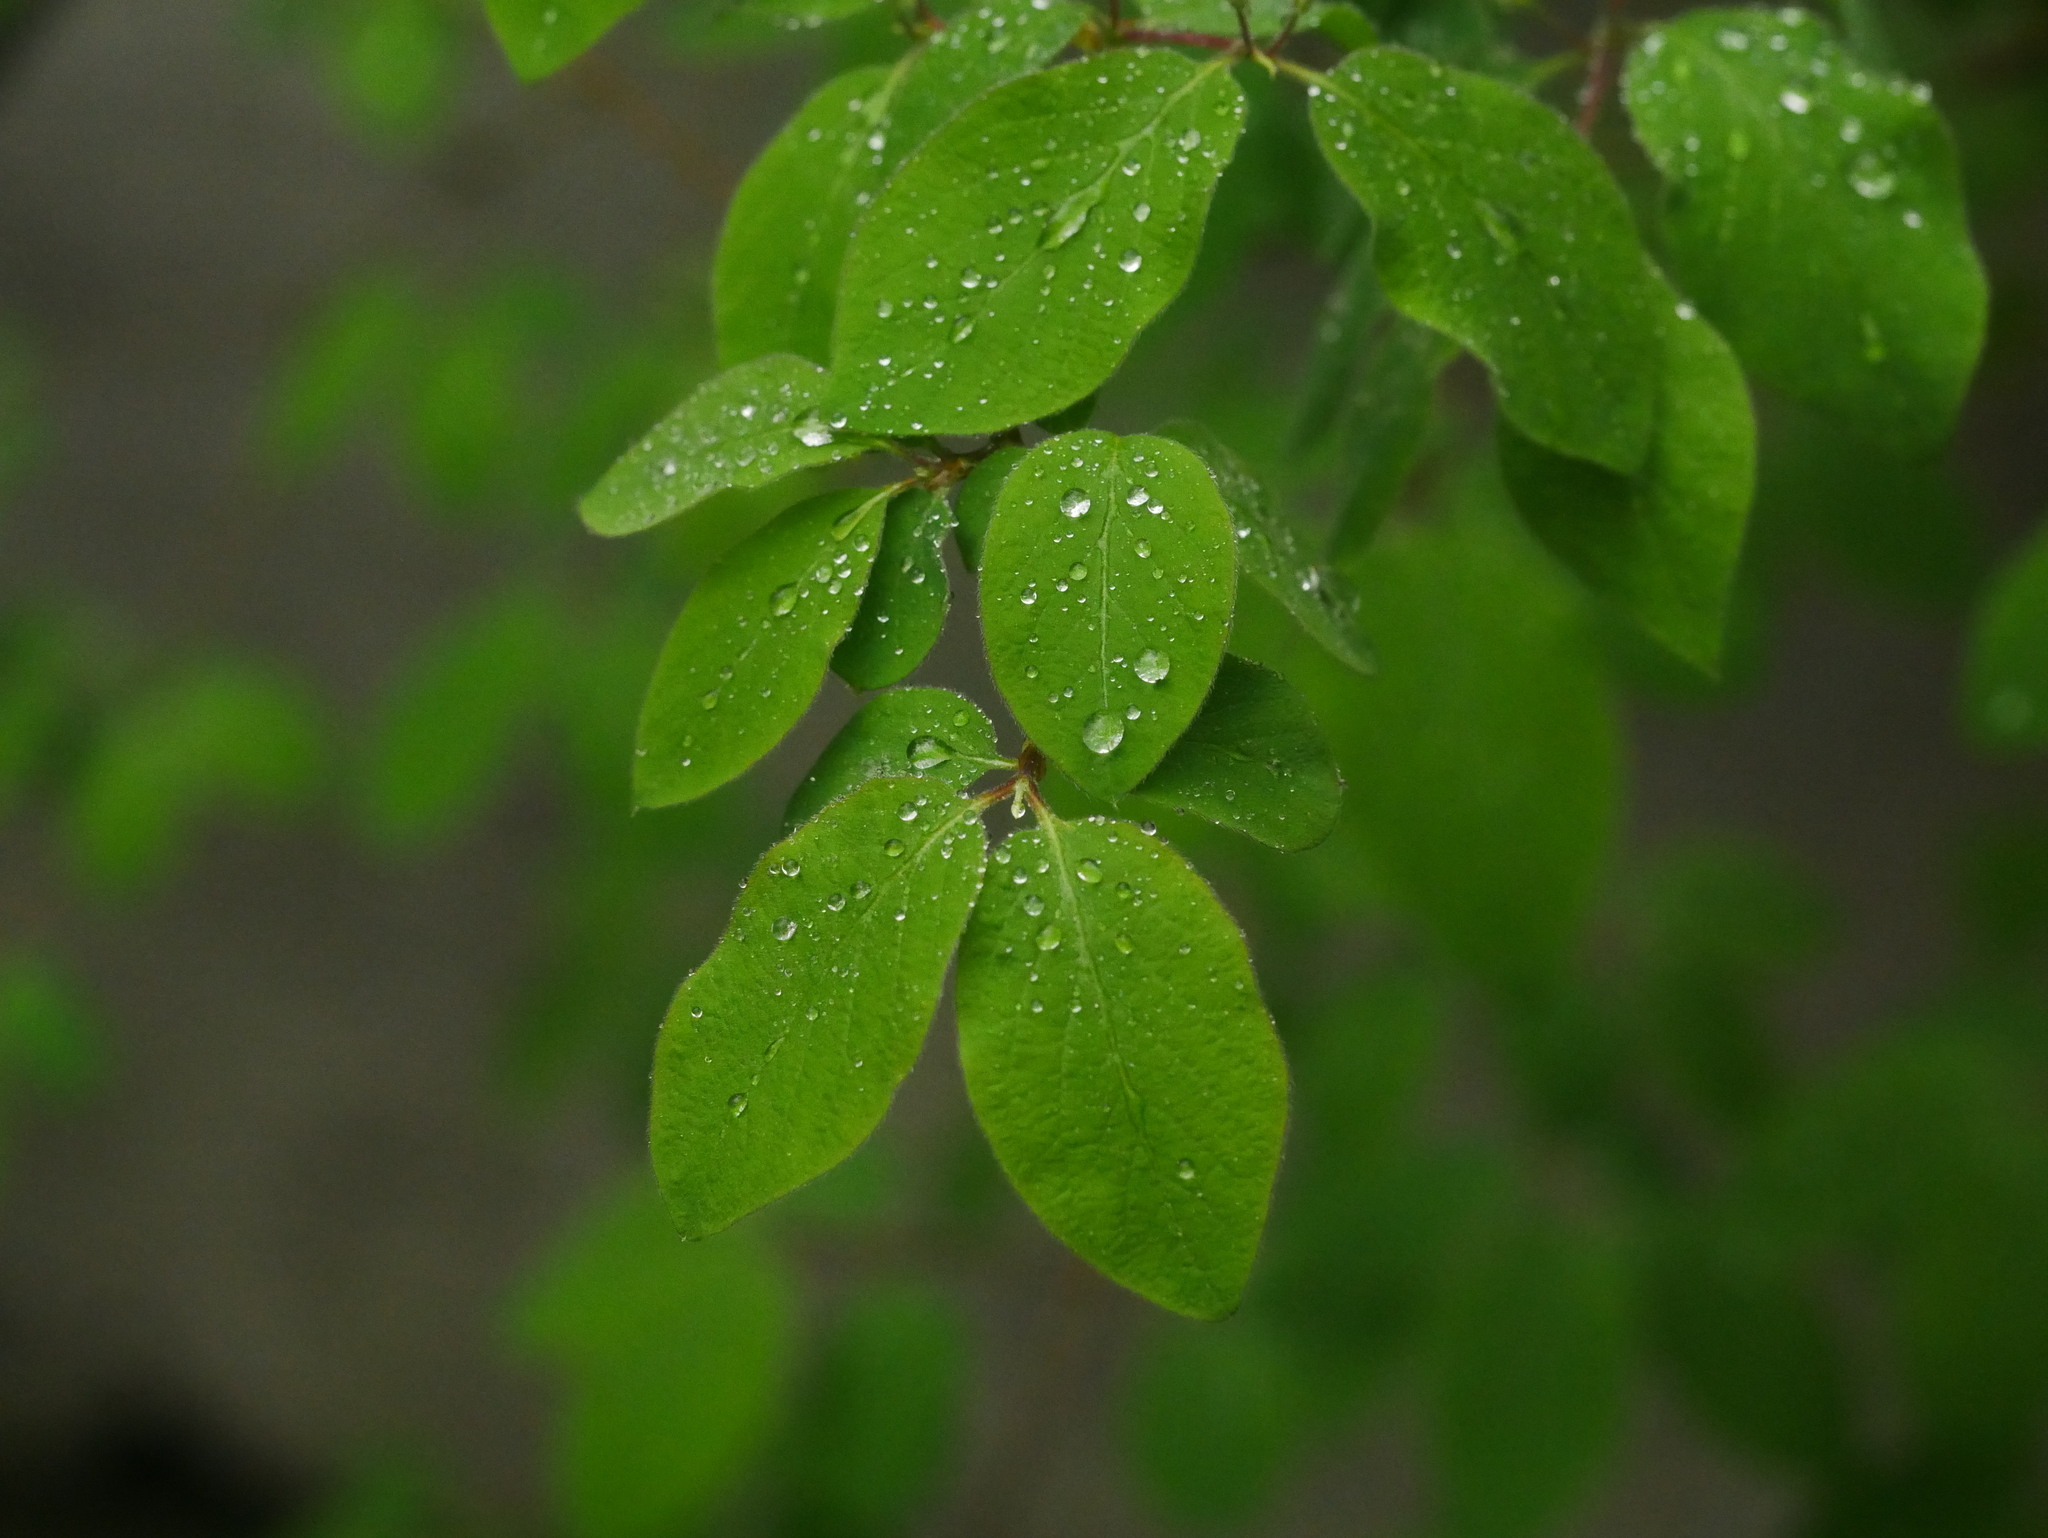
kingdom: Plantae
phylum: Tracheophyta
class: Magnoliopsida
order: Dipsacales
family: Caprifoliaceae
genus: Lonicera
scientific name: Lonicera xylosteum
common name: Fly honeysuckle
